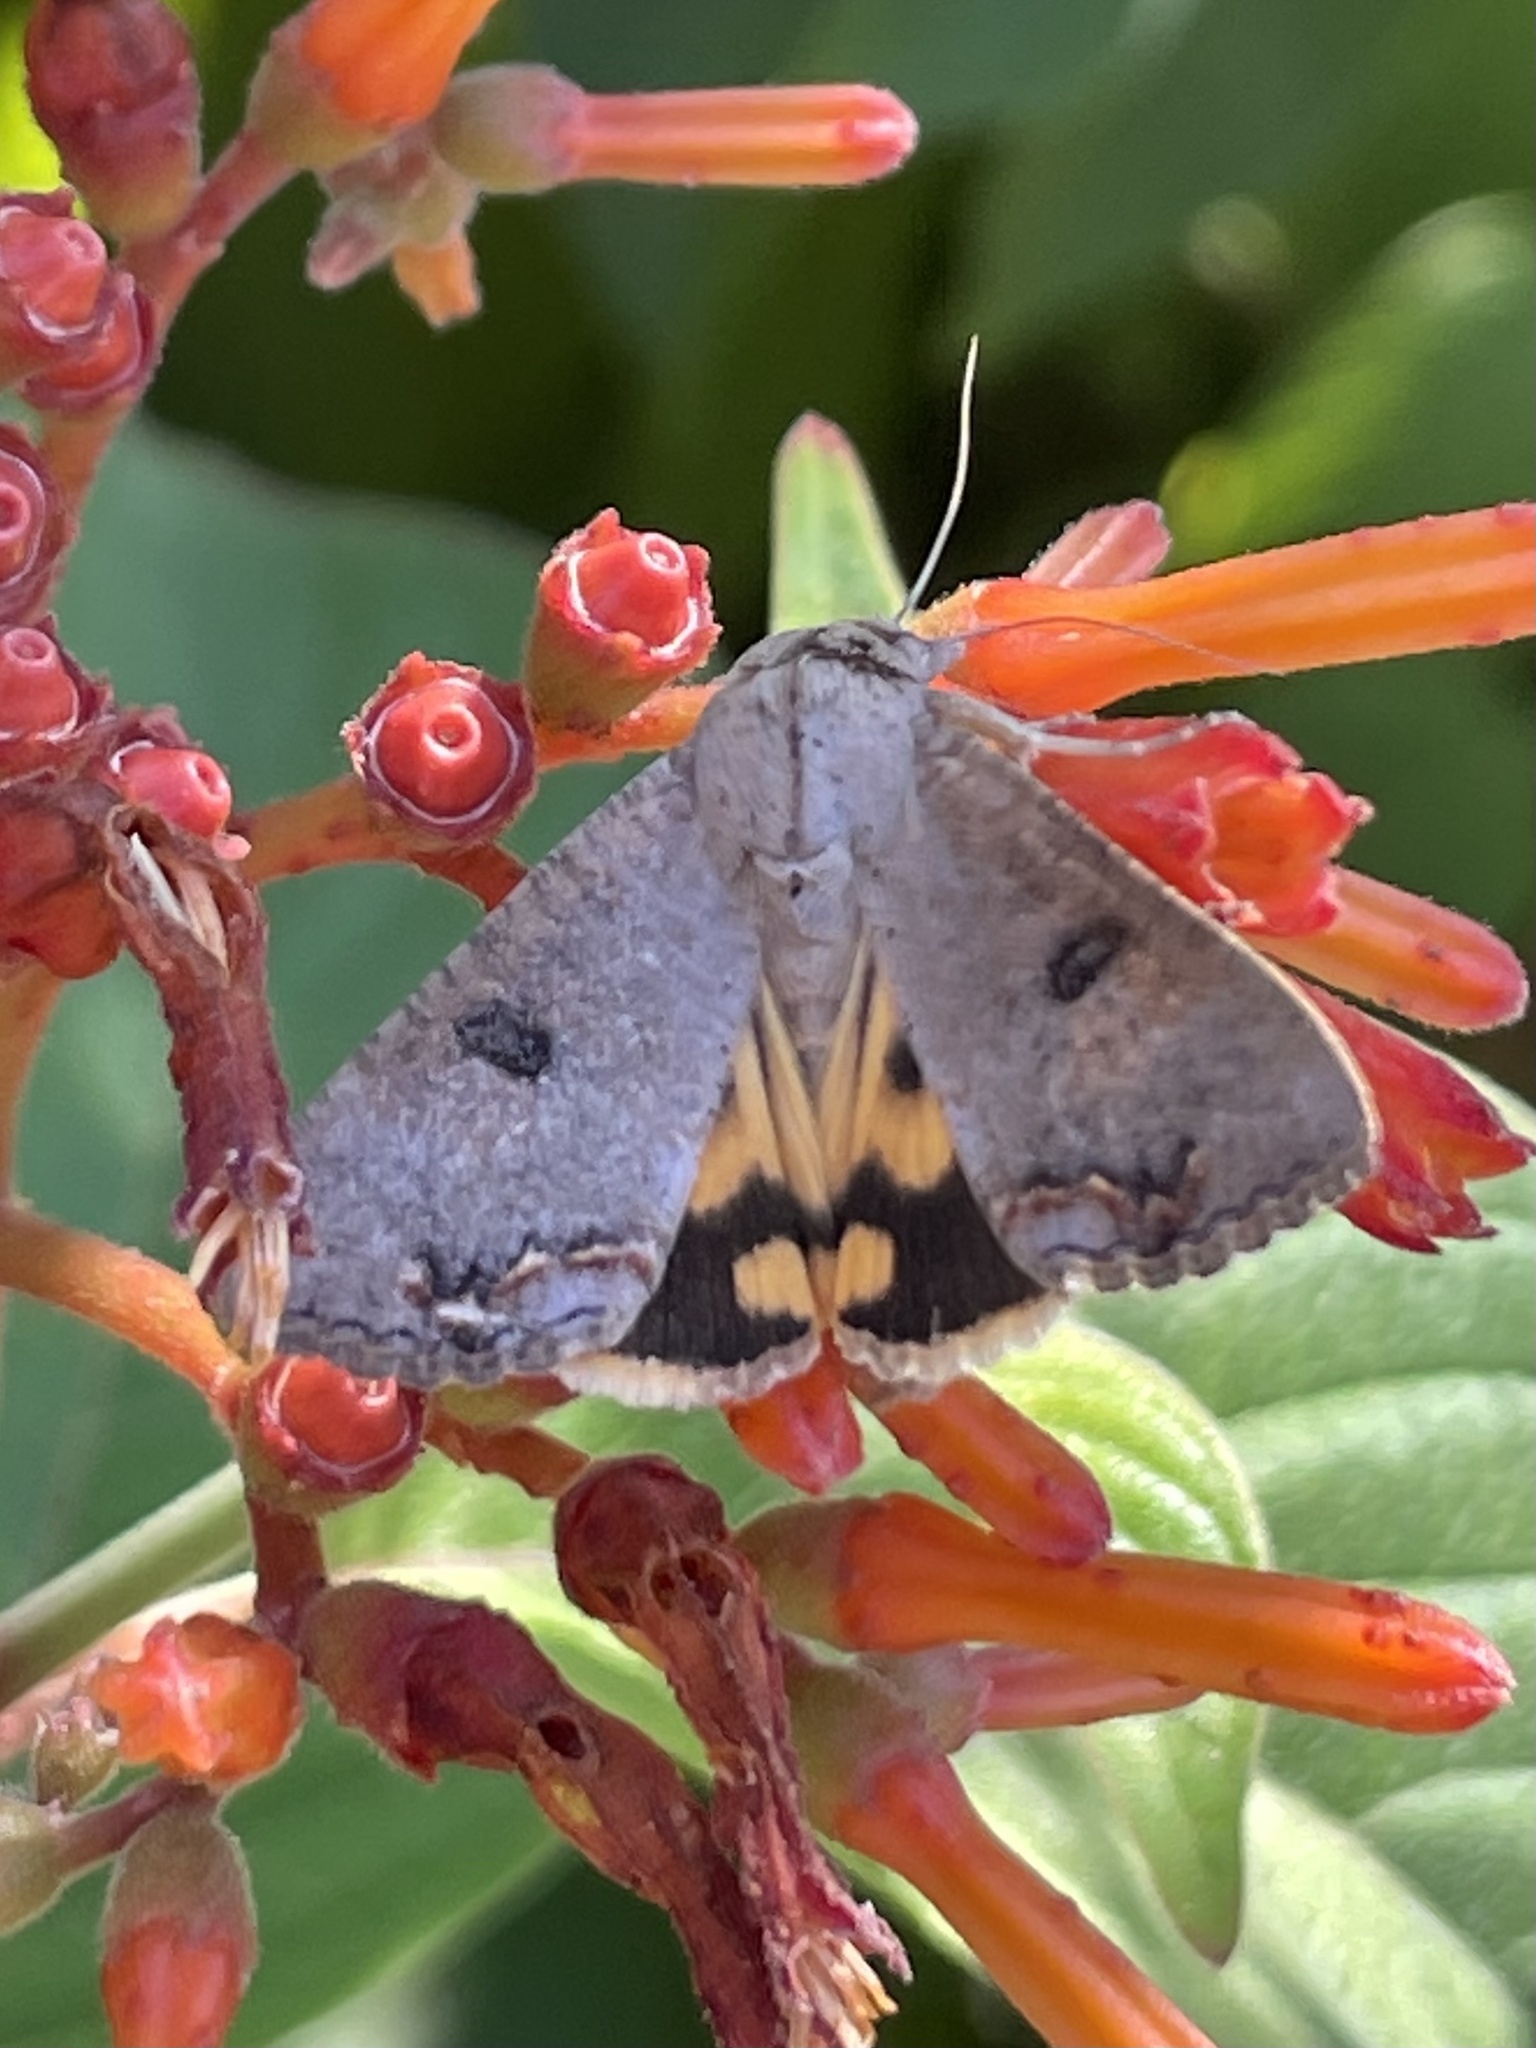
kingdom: Animalia
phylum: Arthropoda
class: Insecta
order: Lepidoptera
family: Erebidae
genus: Hypocala
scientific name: Hypocala andremona
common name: Hypocala moth
